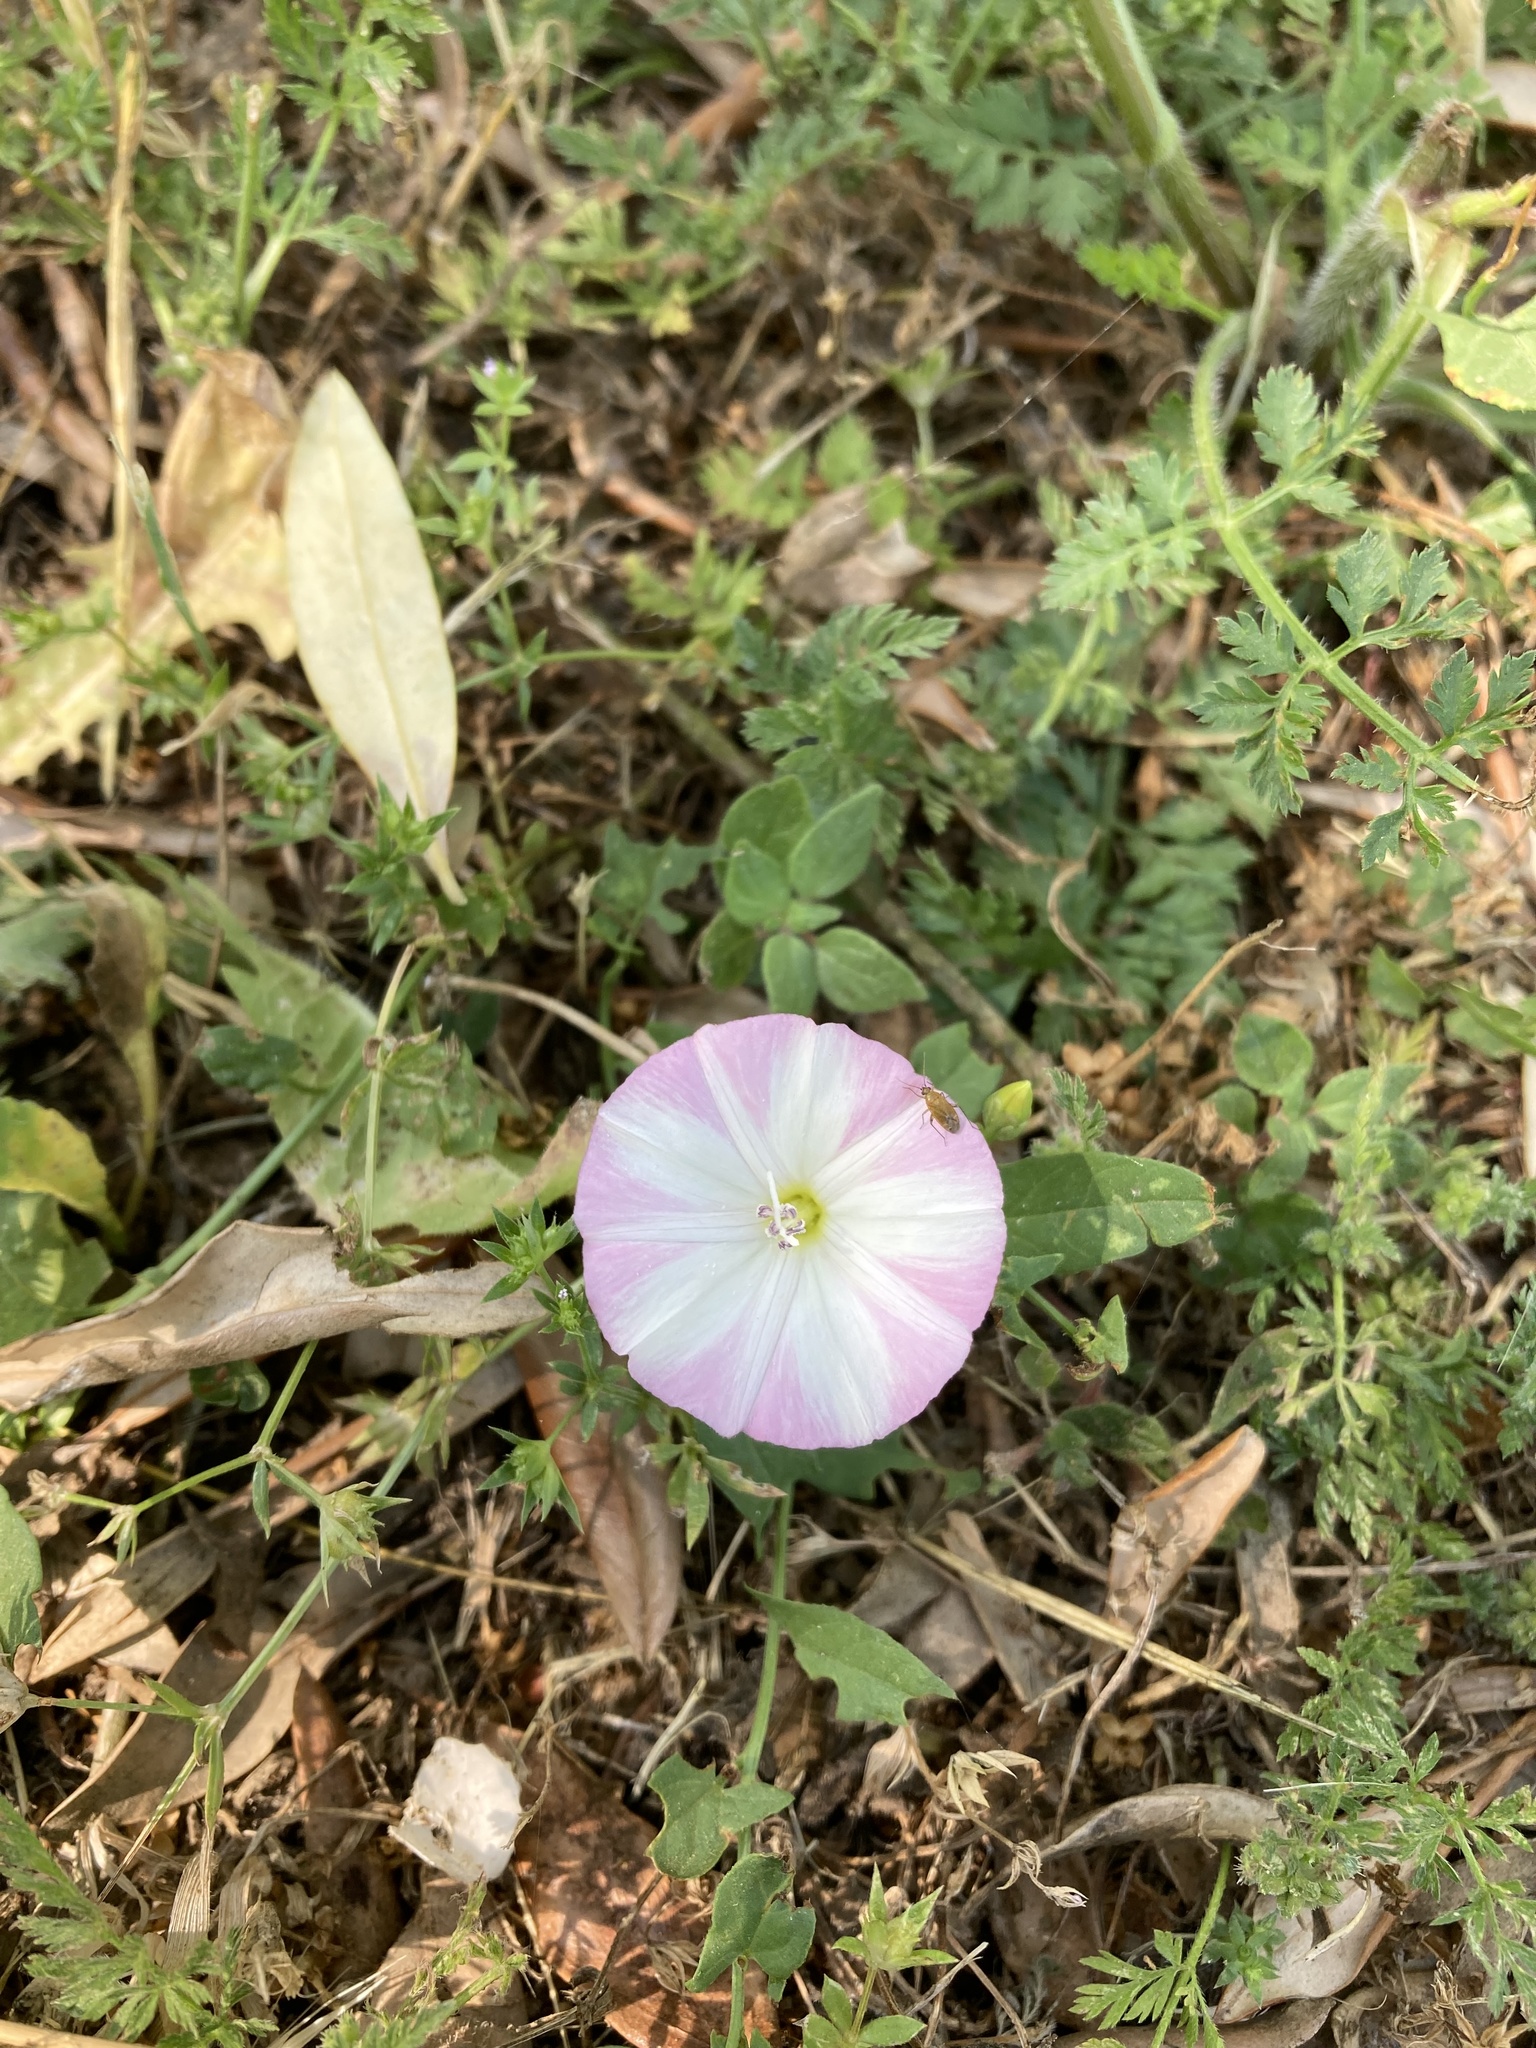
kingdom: Plantae
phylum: Tracheophyta
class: Magnoliopsida
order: Solanales
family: Convolvulaceae
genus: Convolvulus
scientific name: Convolvulus arvensis
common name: Field bindweed
